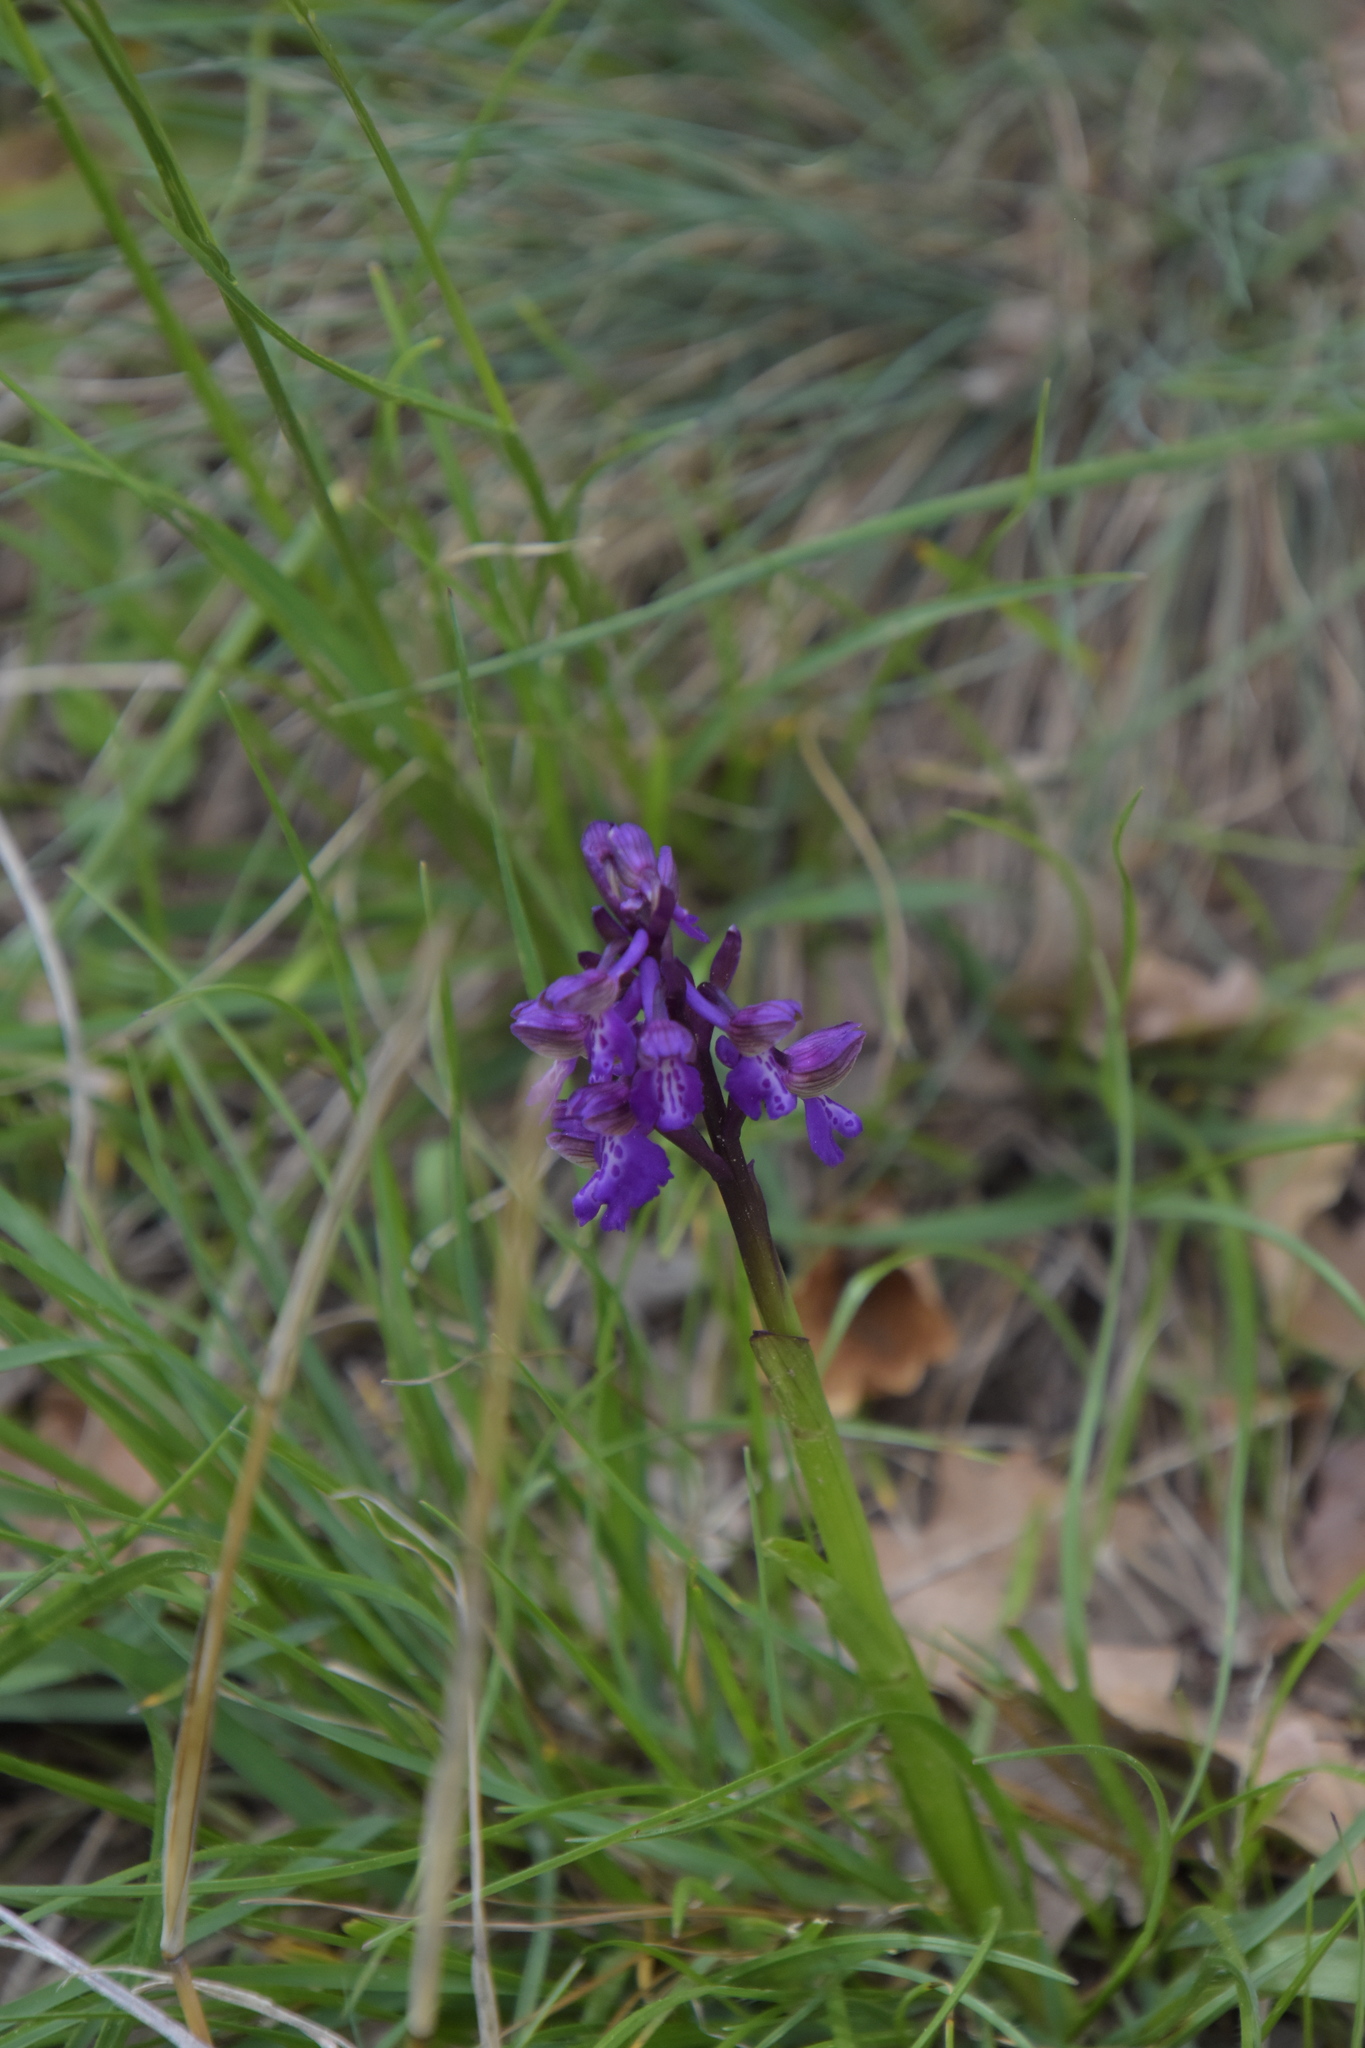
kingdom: Plantae
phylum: Tracheophyta
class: Liliopsida
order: Asparagales
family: Orchidaceae
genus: Anacamptis
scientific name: Anacamptis morio
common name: Green-winged orchid
